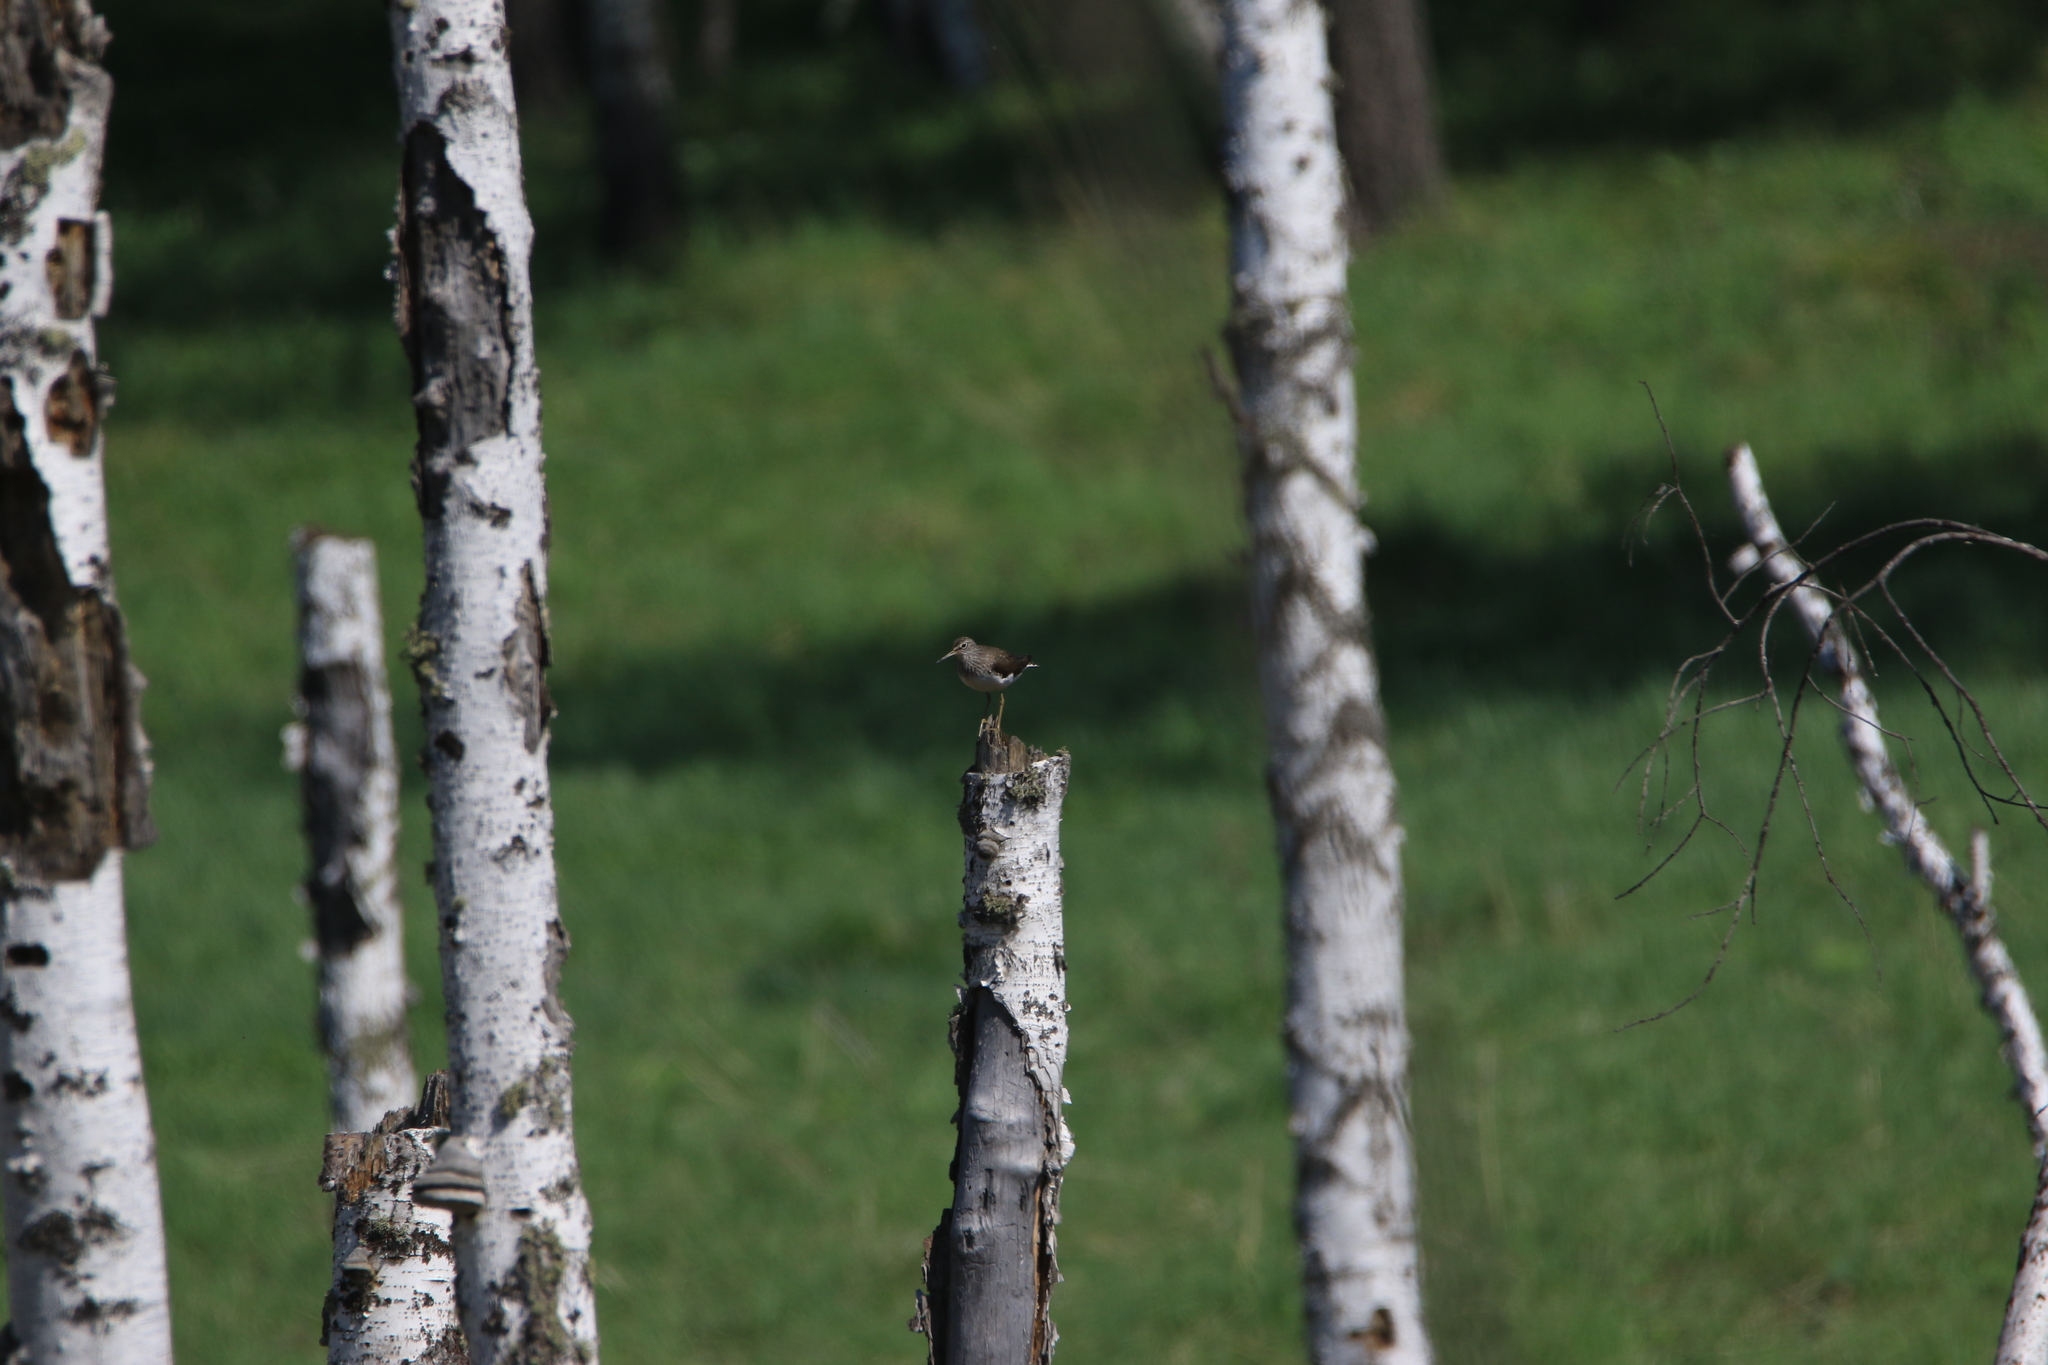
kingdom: Animalia
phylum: Chordata
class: Aves
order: Charadriiformes
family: Scolopacidae
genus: Tringa
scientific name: Tringa ochropus
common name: Green sandpiper
